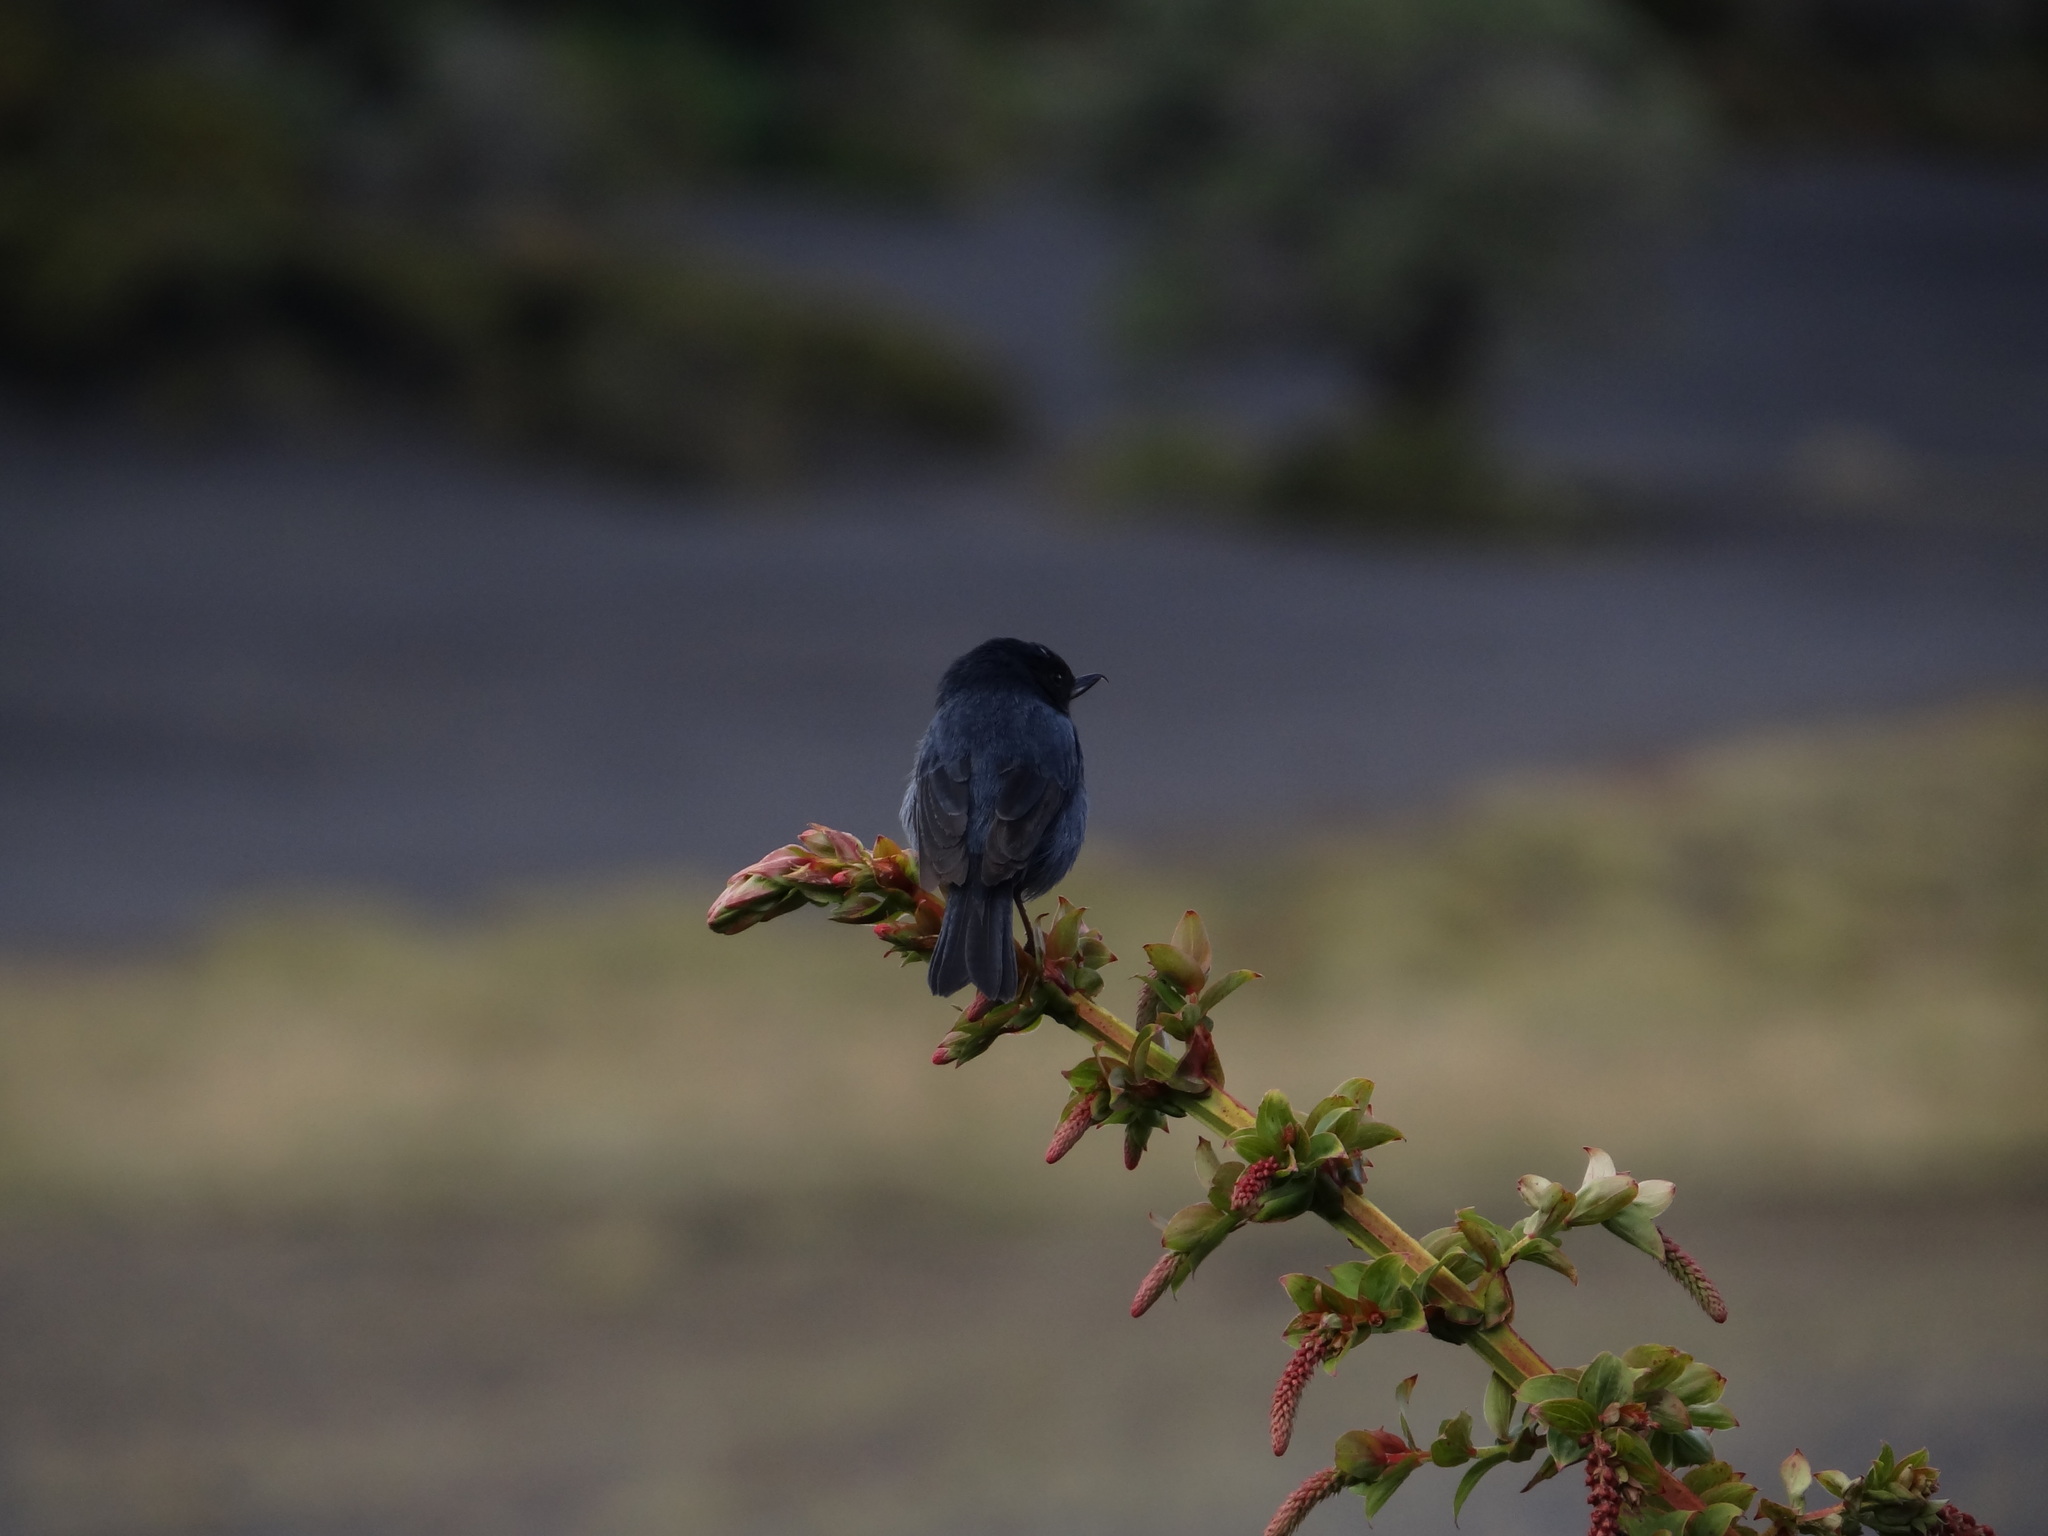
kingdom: Animalia
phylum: Chordata
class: Aves
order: Passeriformes
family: Thraupidae
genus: Diglossa
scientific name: Diglossa plumbea
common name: Slaty flowerpiercer
